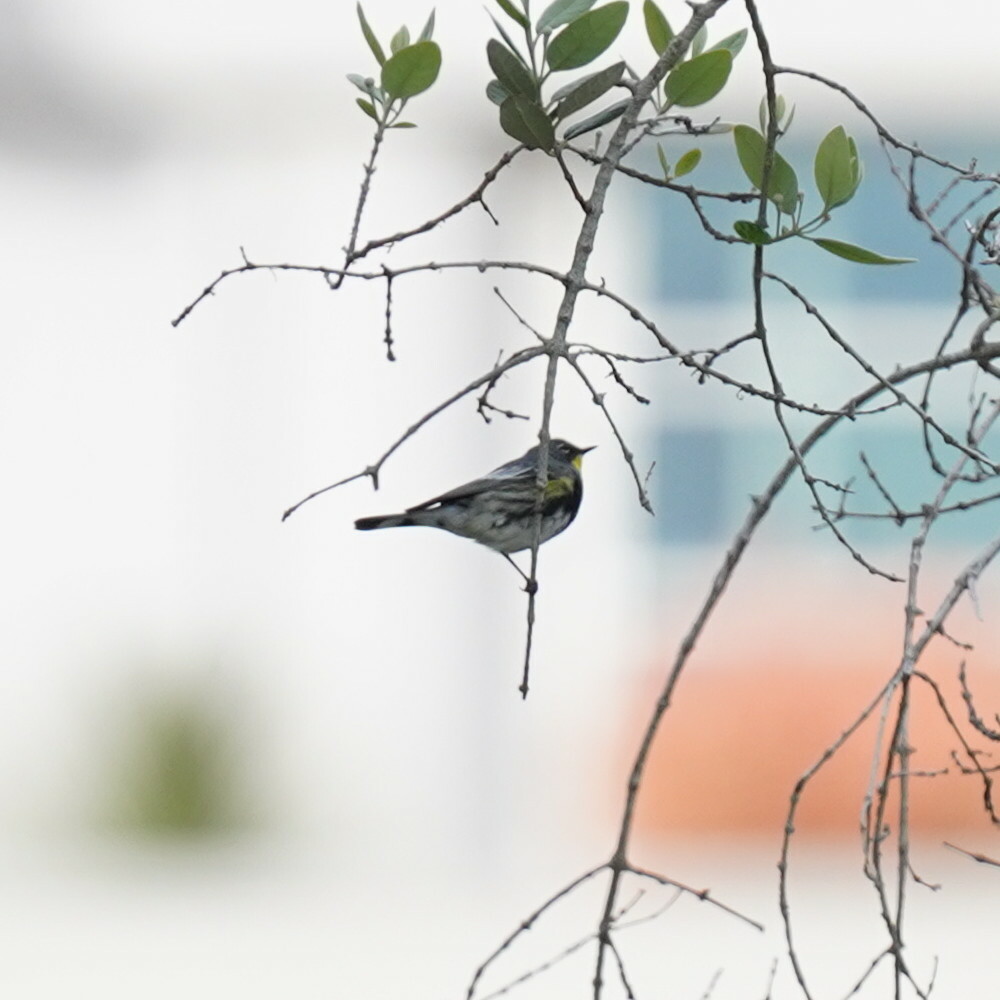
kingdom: Animalia
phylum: Chordata
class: Aves
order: Passeriformes
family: Parulidae
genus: Setophaga
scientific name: Setophaga coronata
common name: Myrtle warbler
